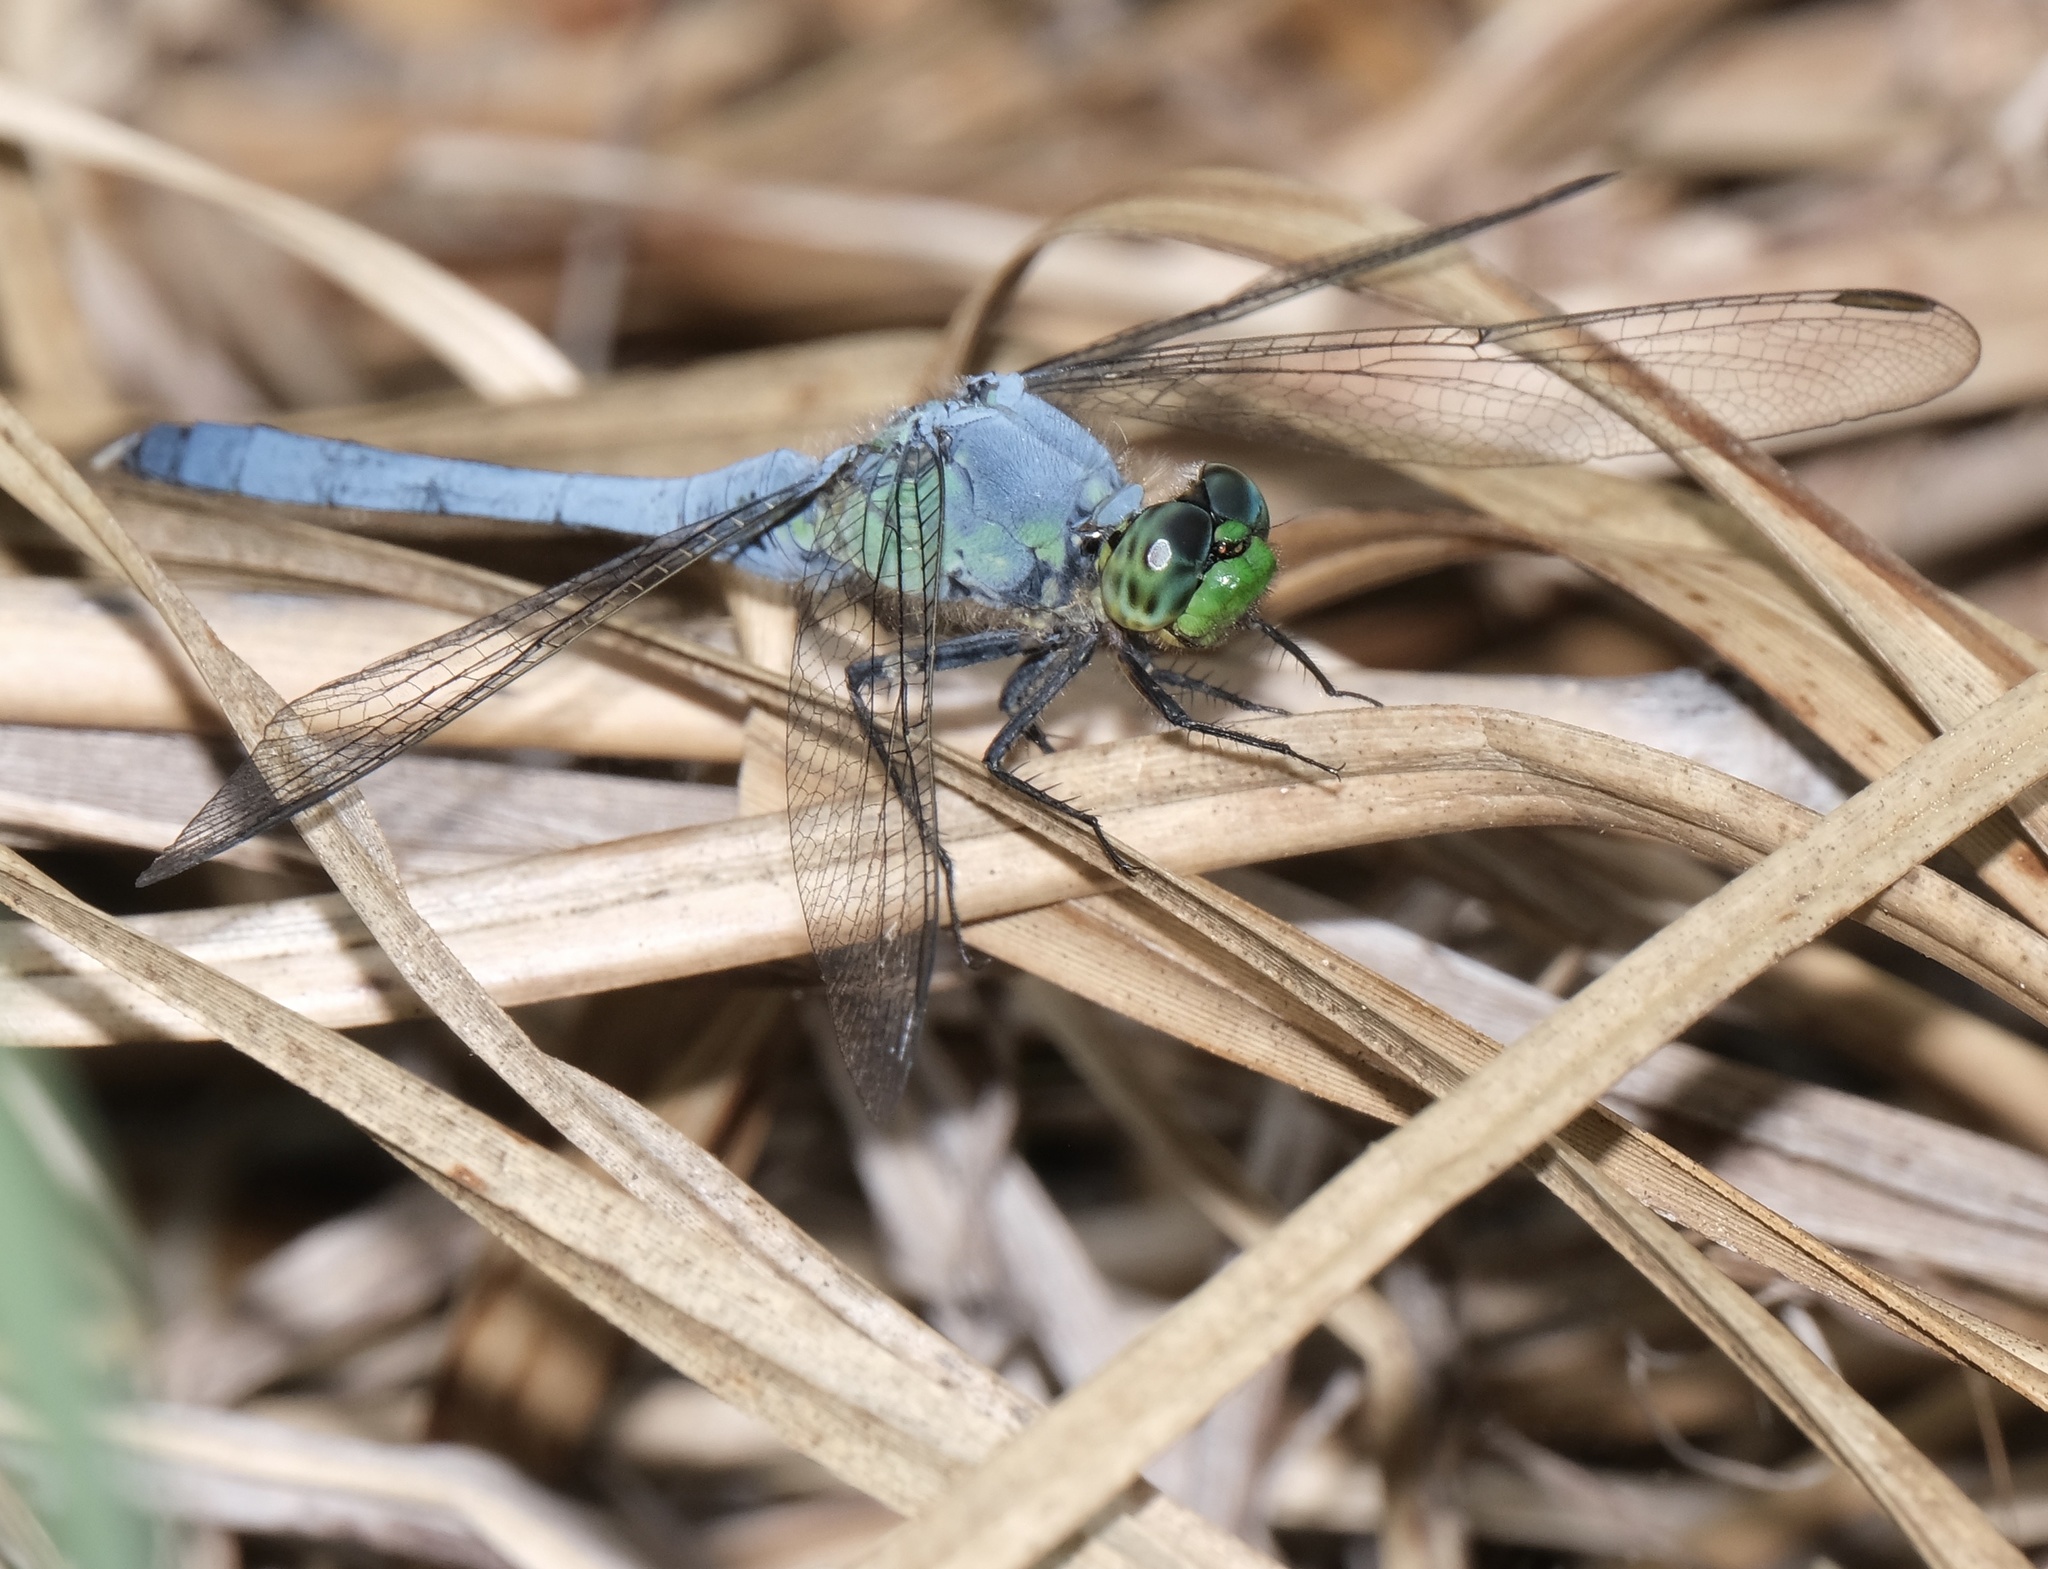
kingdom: Animalia
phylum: Arthropoda
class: Insecta
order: Odonata
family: Libellulidae
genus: Erythemis
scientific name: Erythemis simplicicollis
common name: Eastern pondhawk
